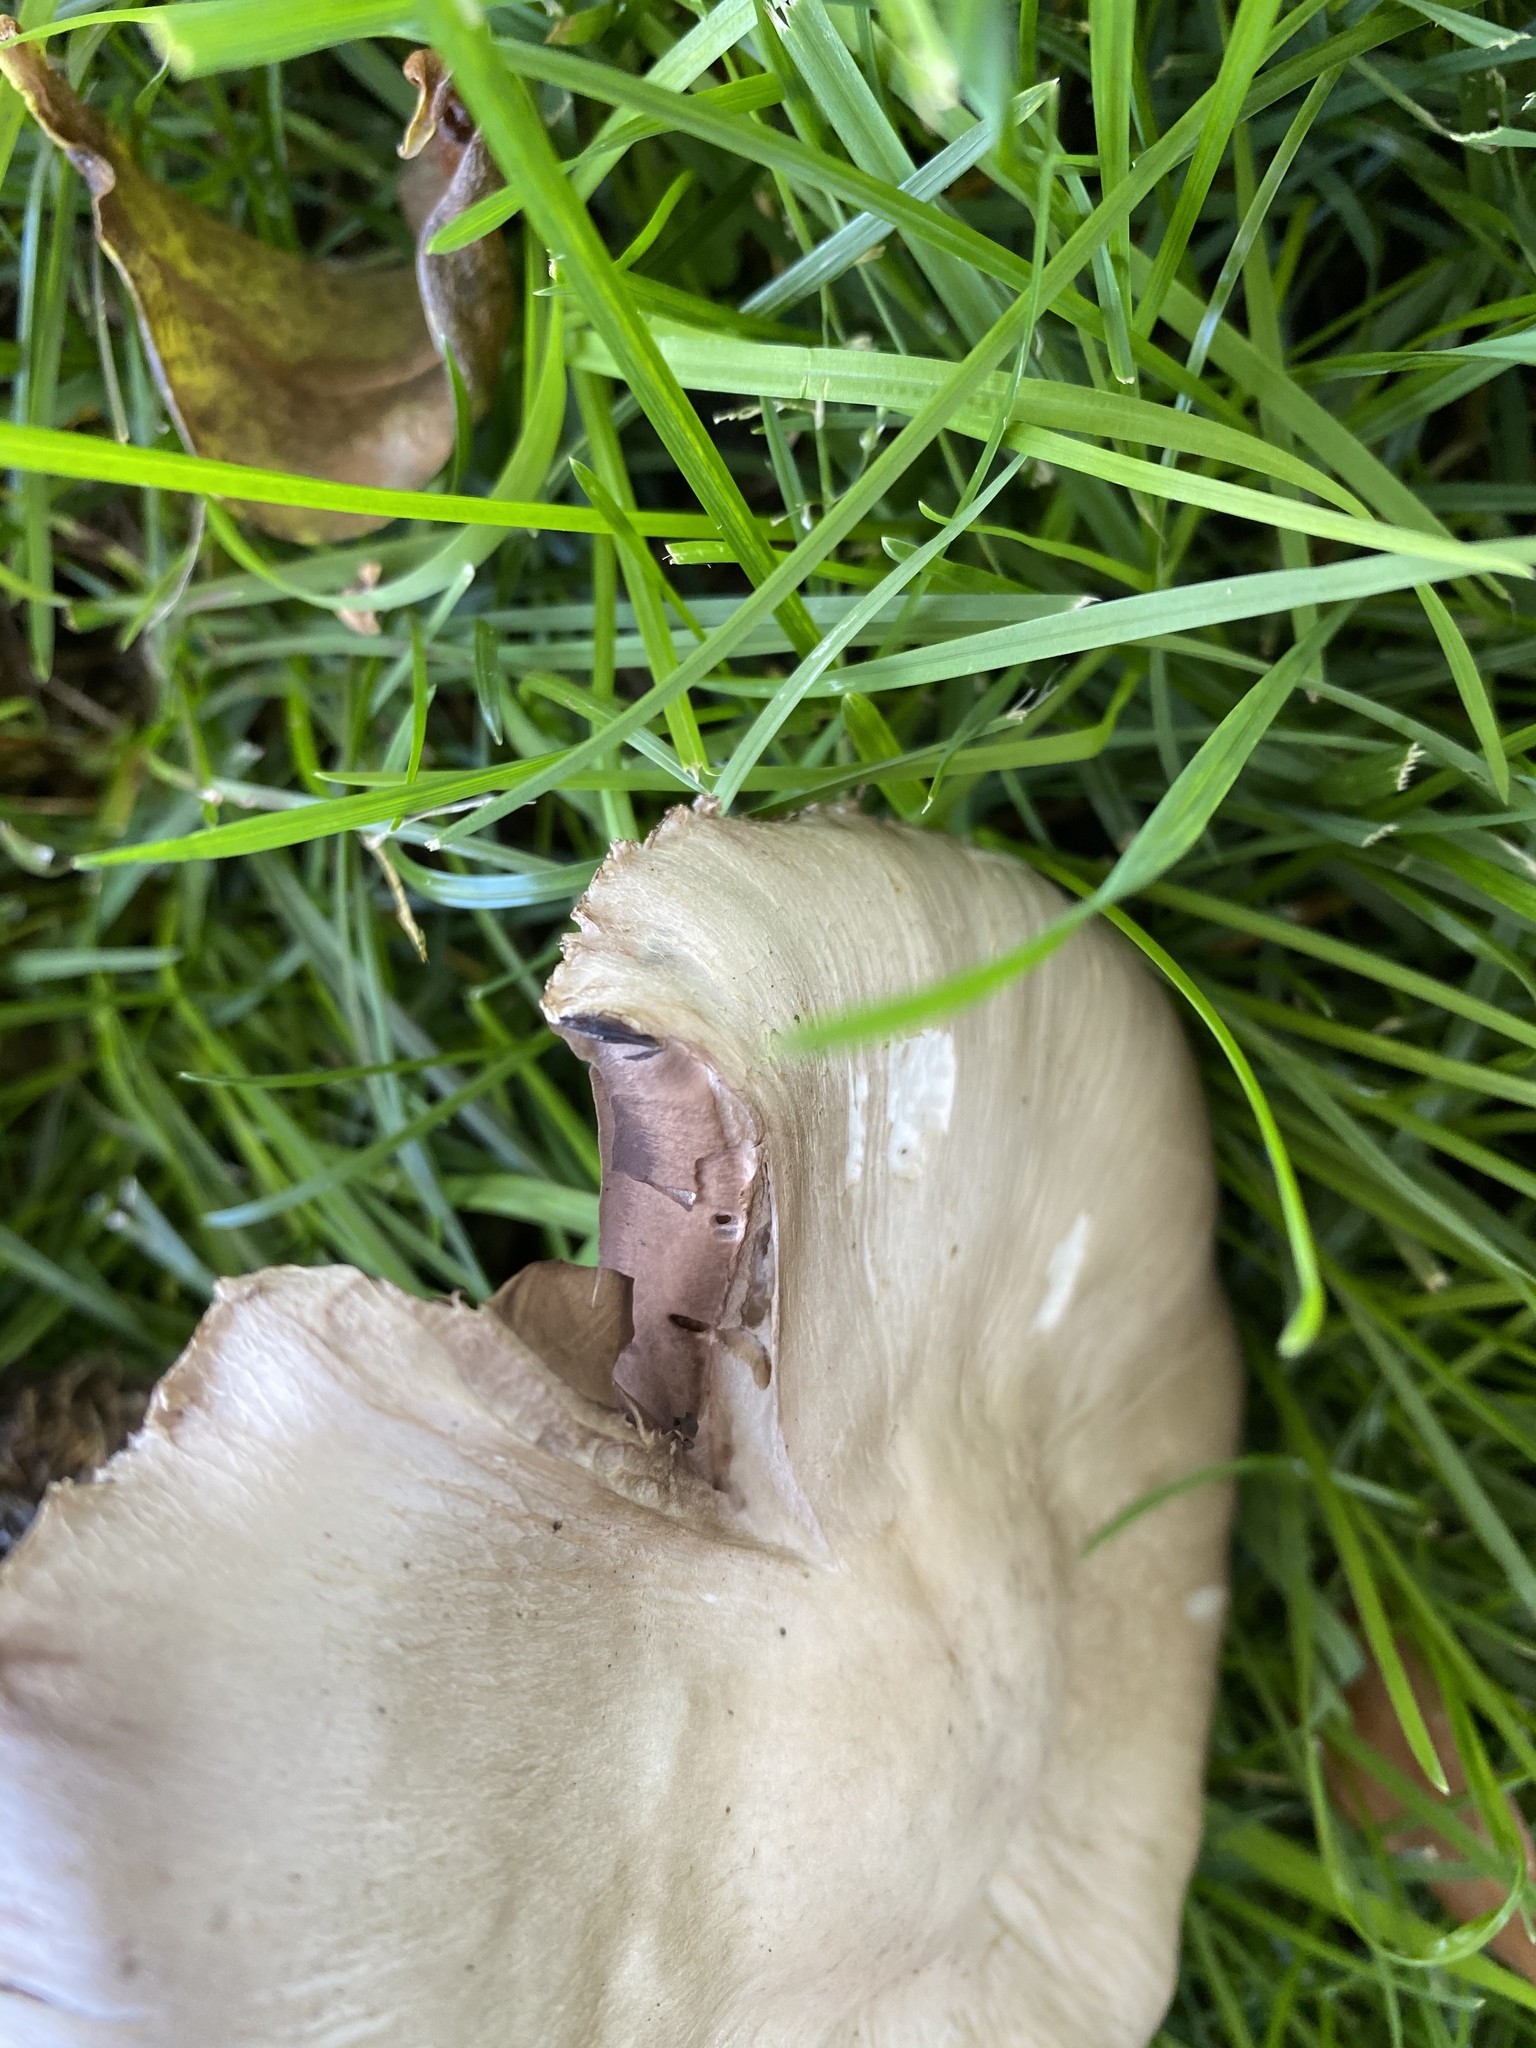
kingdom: Fungi
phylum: Basidiomycota
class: Agaricomycetes
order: Agaricales
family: Agaricaceae
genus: Agaricus
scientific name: Agaricus californicus
